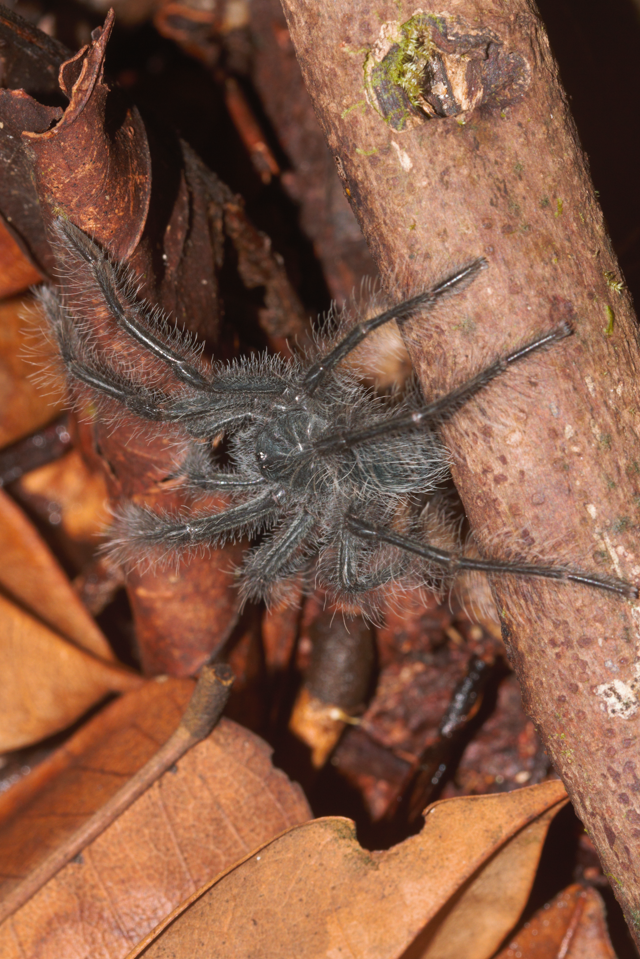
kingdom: Animalia
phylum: Arthropoda
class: Arachnida
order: Araneae
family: Theraphosidae
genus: Theraphosa
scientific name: Theraphosa blondi
